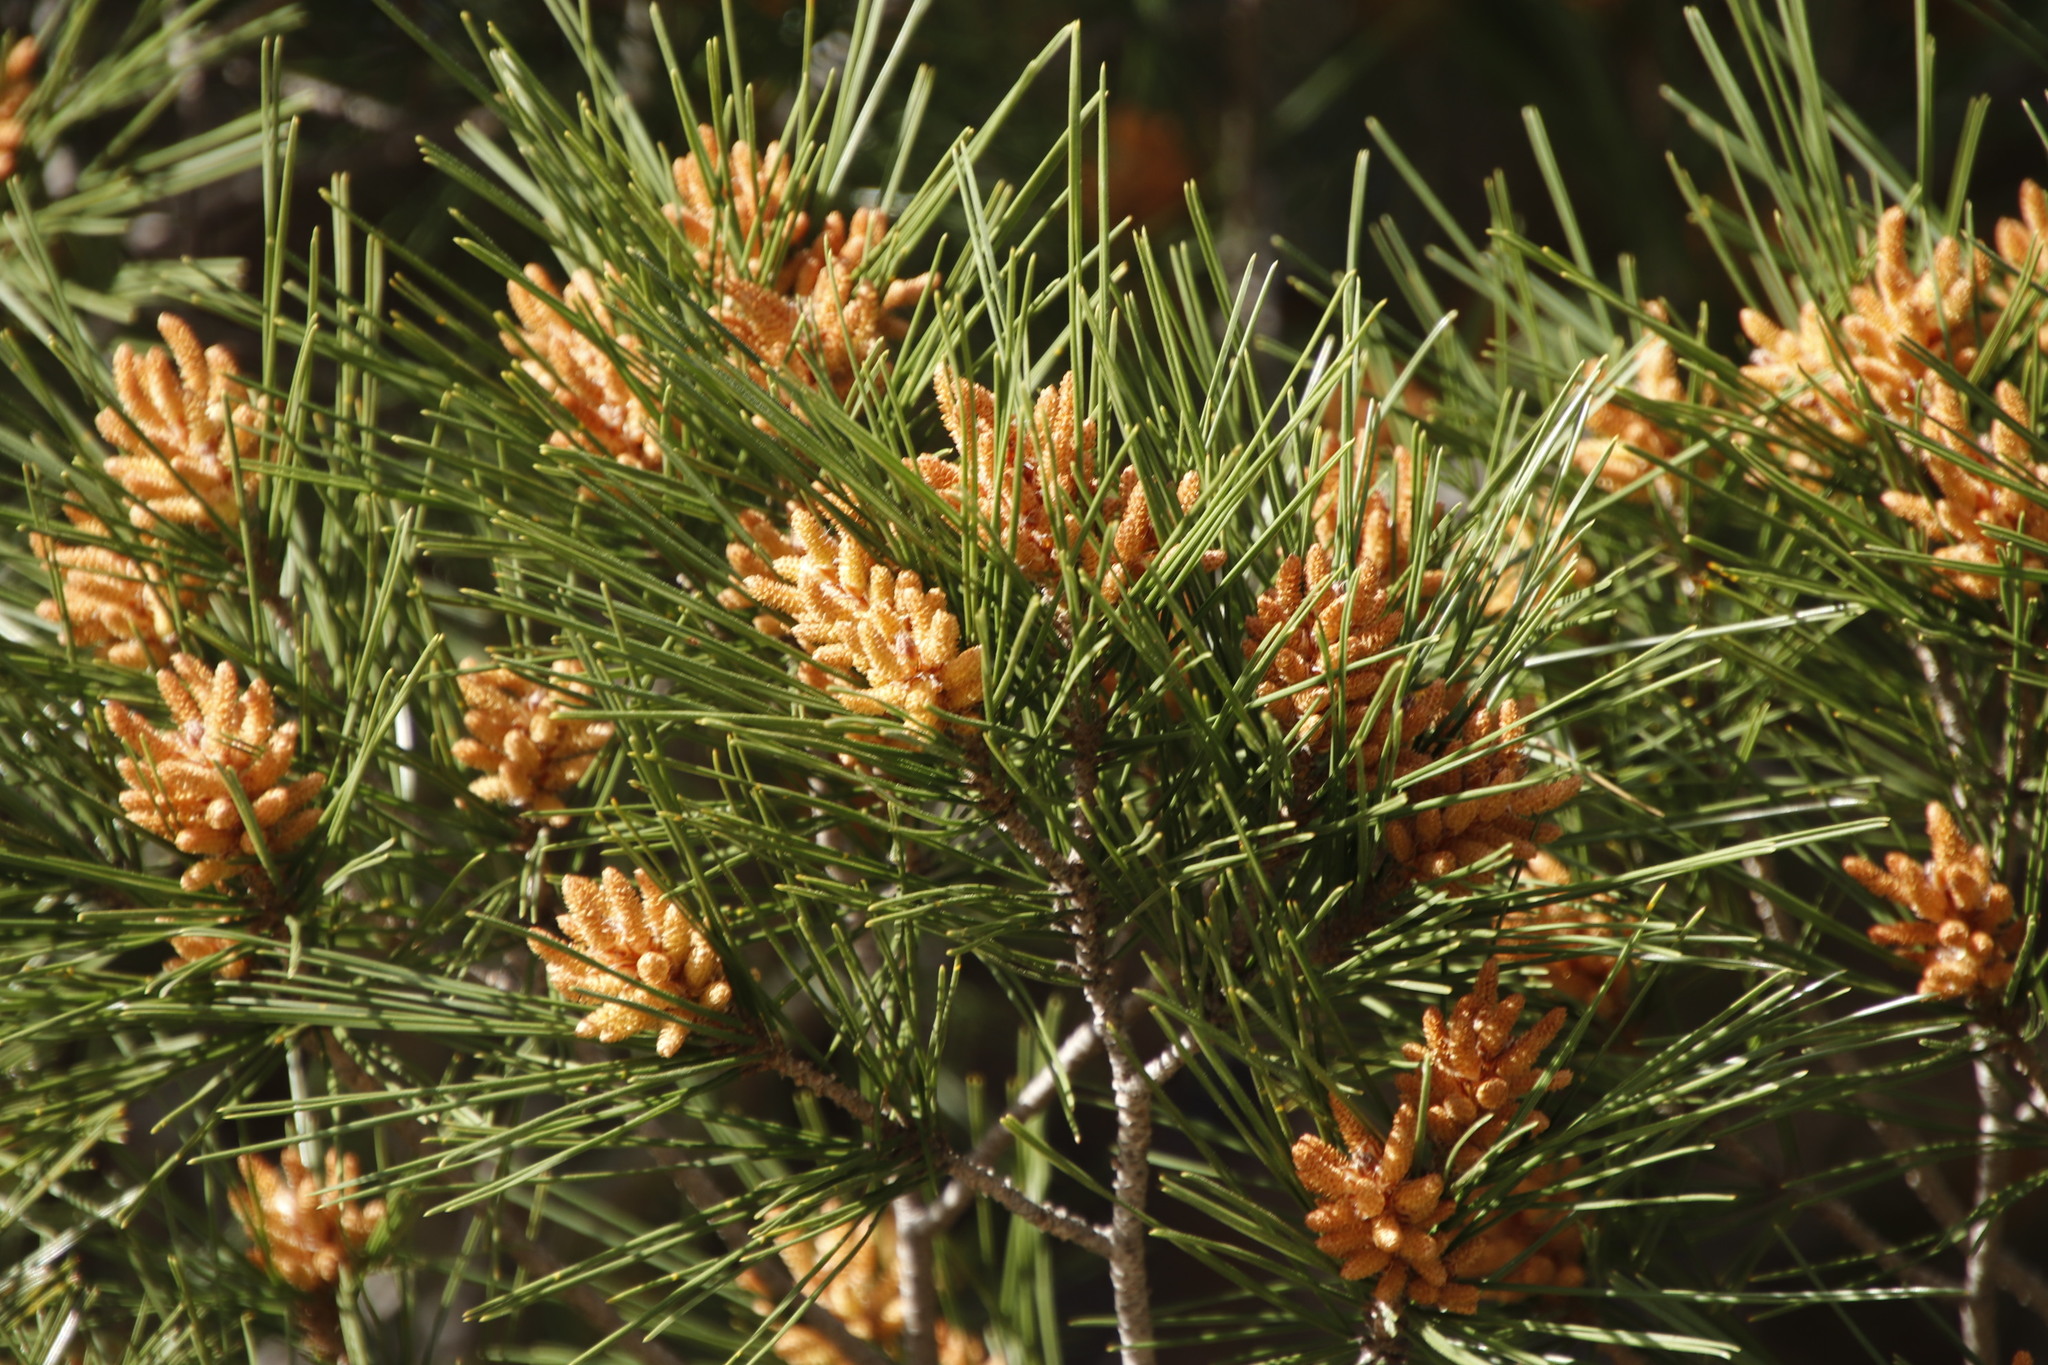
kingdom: Plantae
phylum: Tracheophyta
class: Pinopsida
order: Pinales
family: Pinaceae
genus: Pinus
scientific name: Pinus halepensis
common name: Aleppo pine
